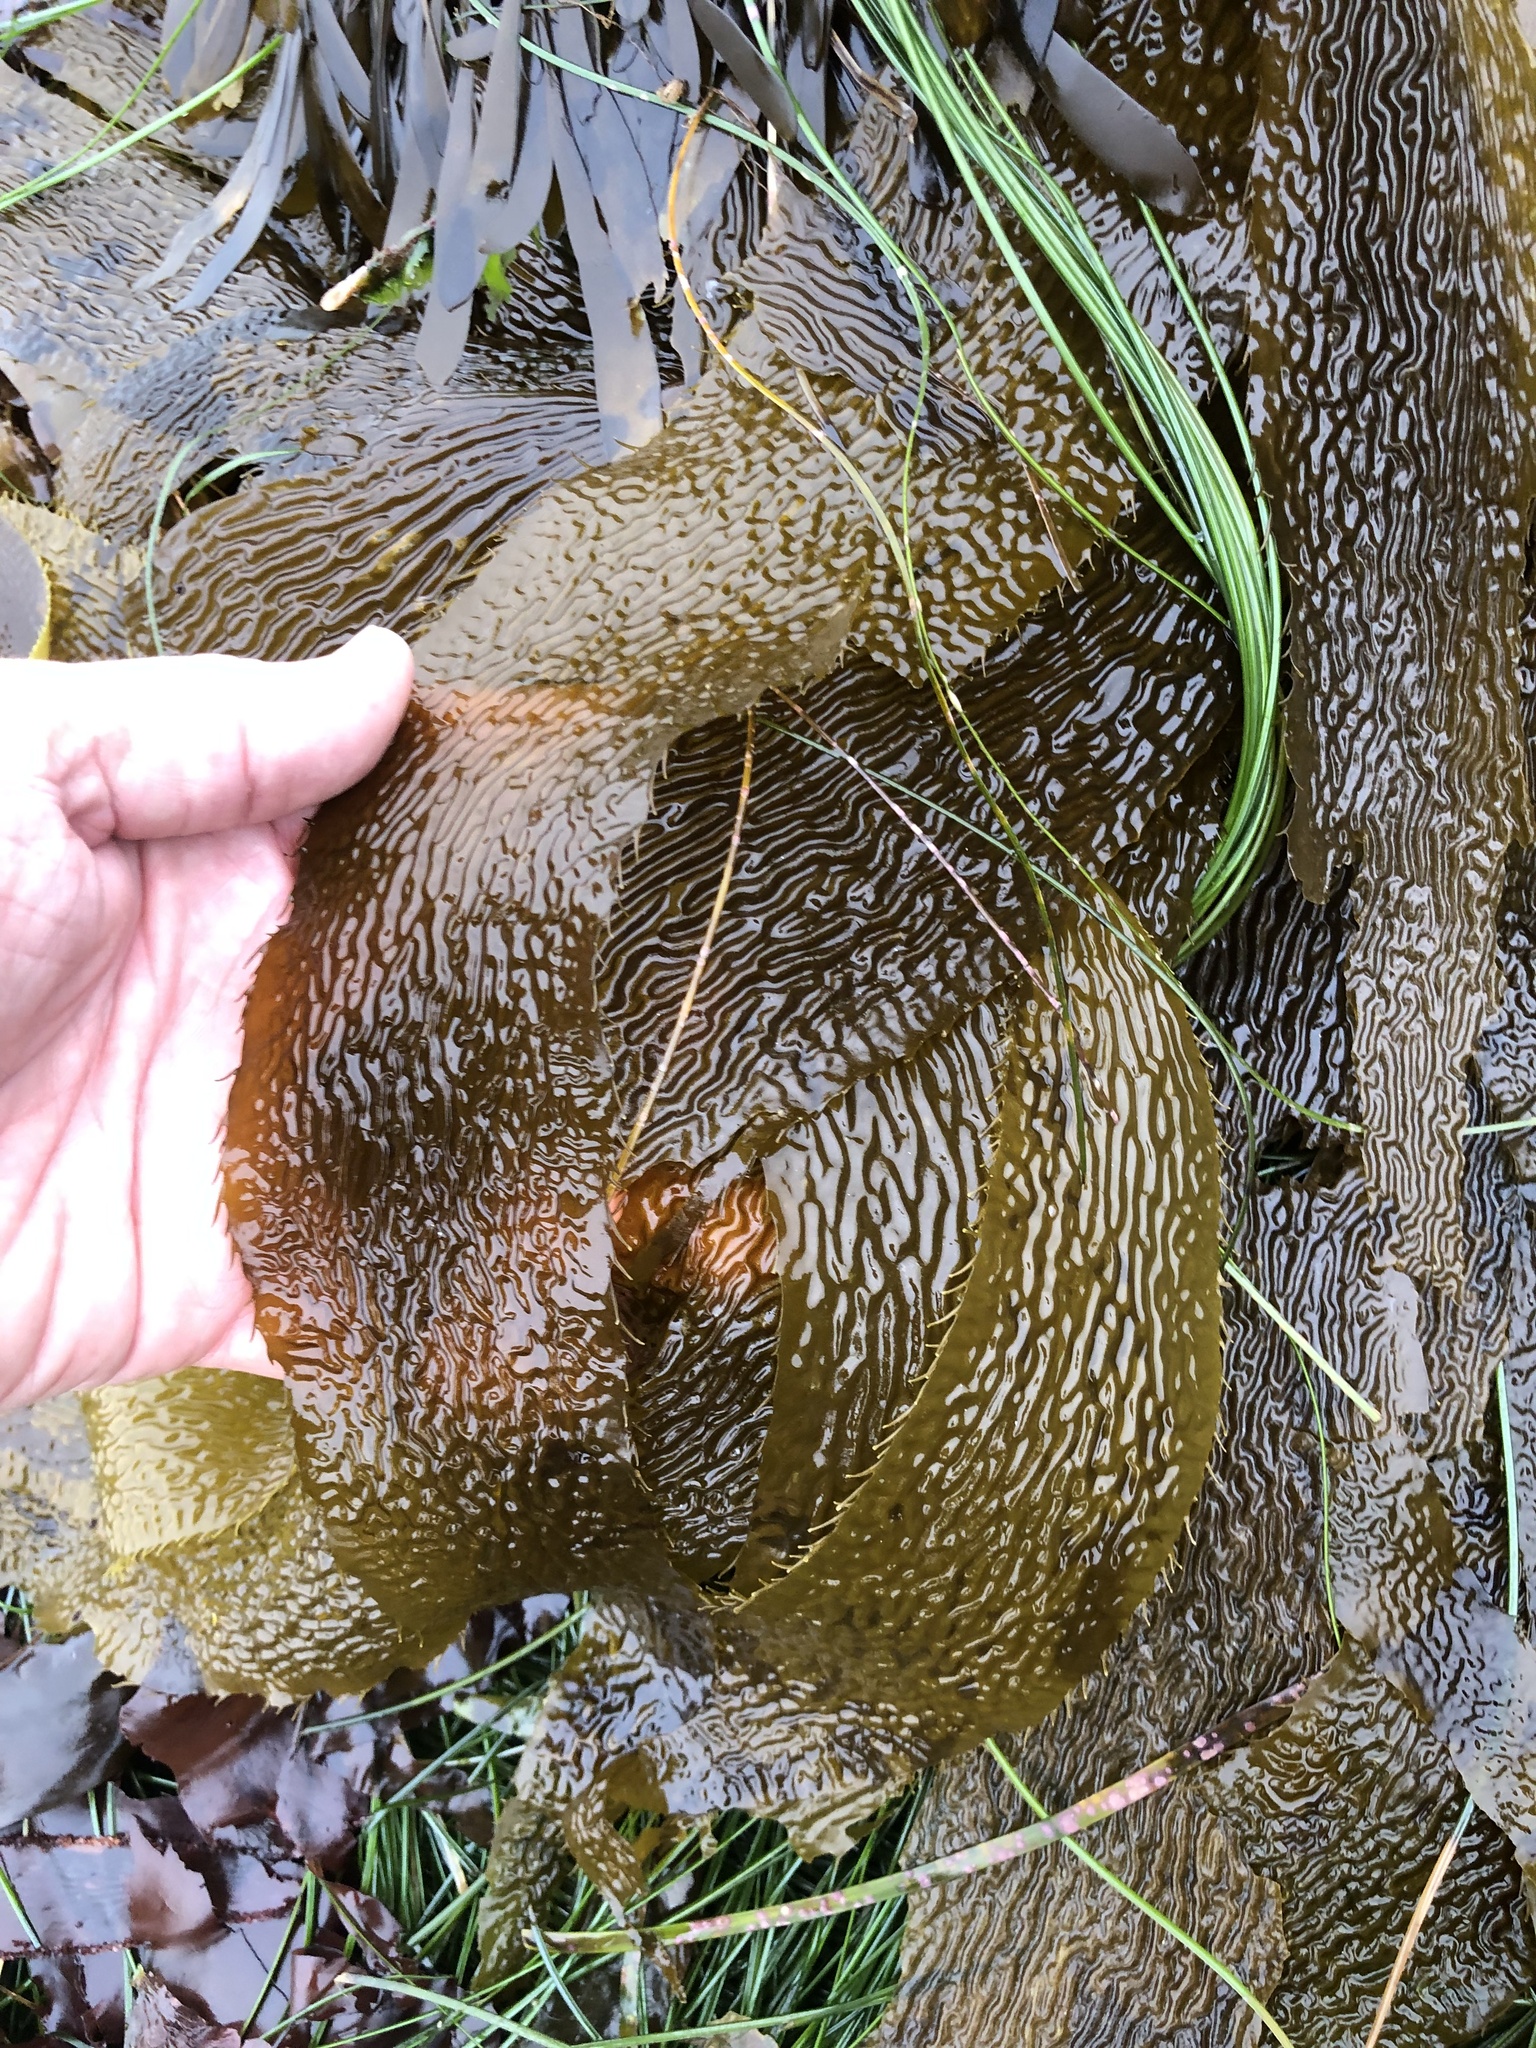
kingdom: Chromista
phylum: Ochrophyta
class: Phaeophyceae
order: Laminariales
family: Laminariaceae
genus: Macrocystis
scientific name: Macrocystis pyrifera
